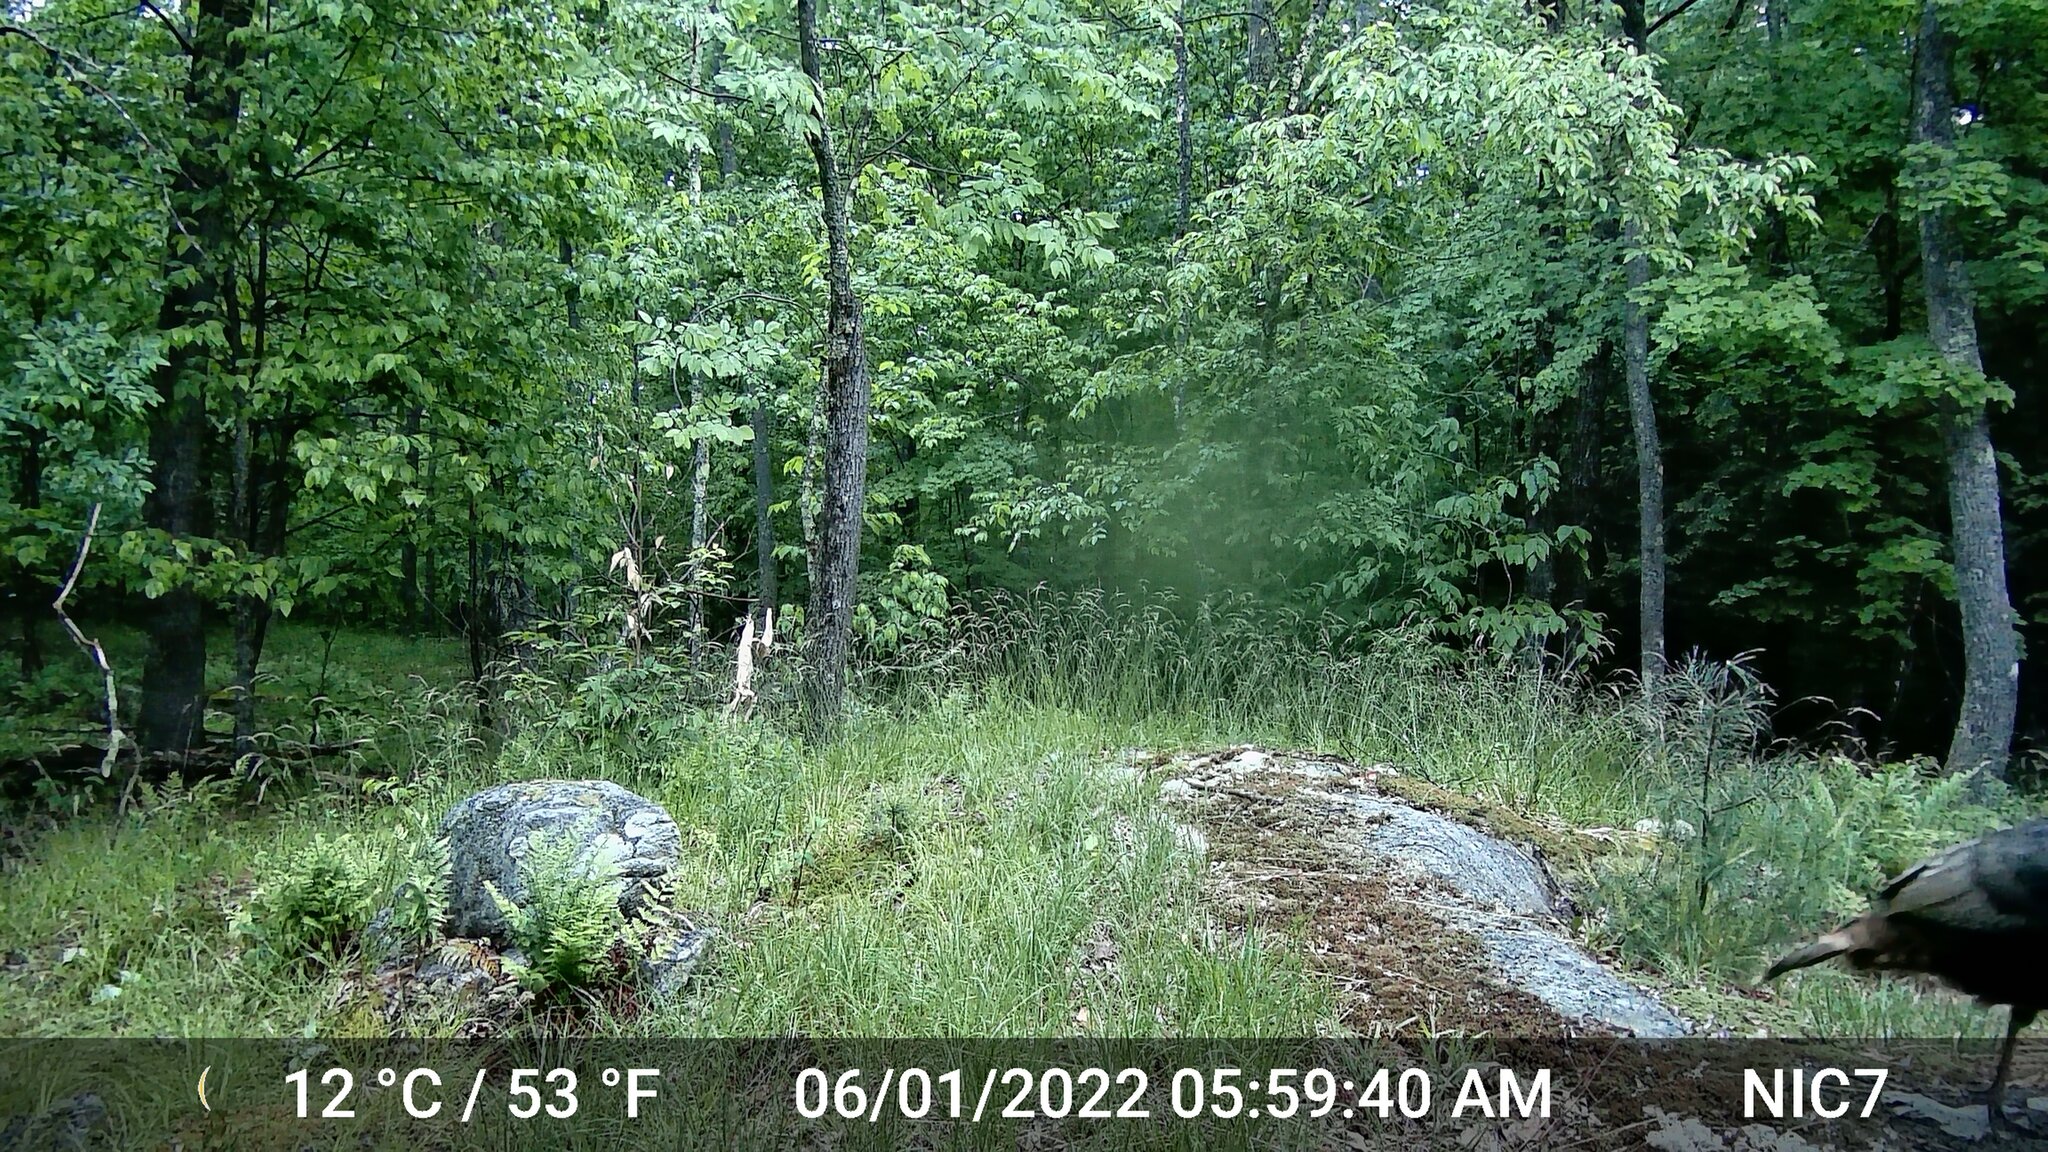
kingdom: Animalia
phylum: Chordata
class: Aves
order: Galliformes
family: Phasianidae
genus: Meleagris
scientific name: Meleagris gallopavo
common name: Wild turkey
